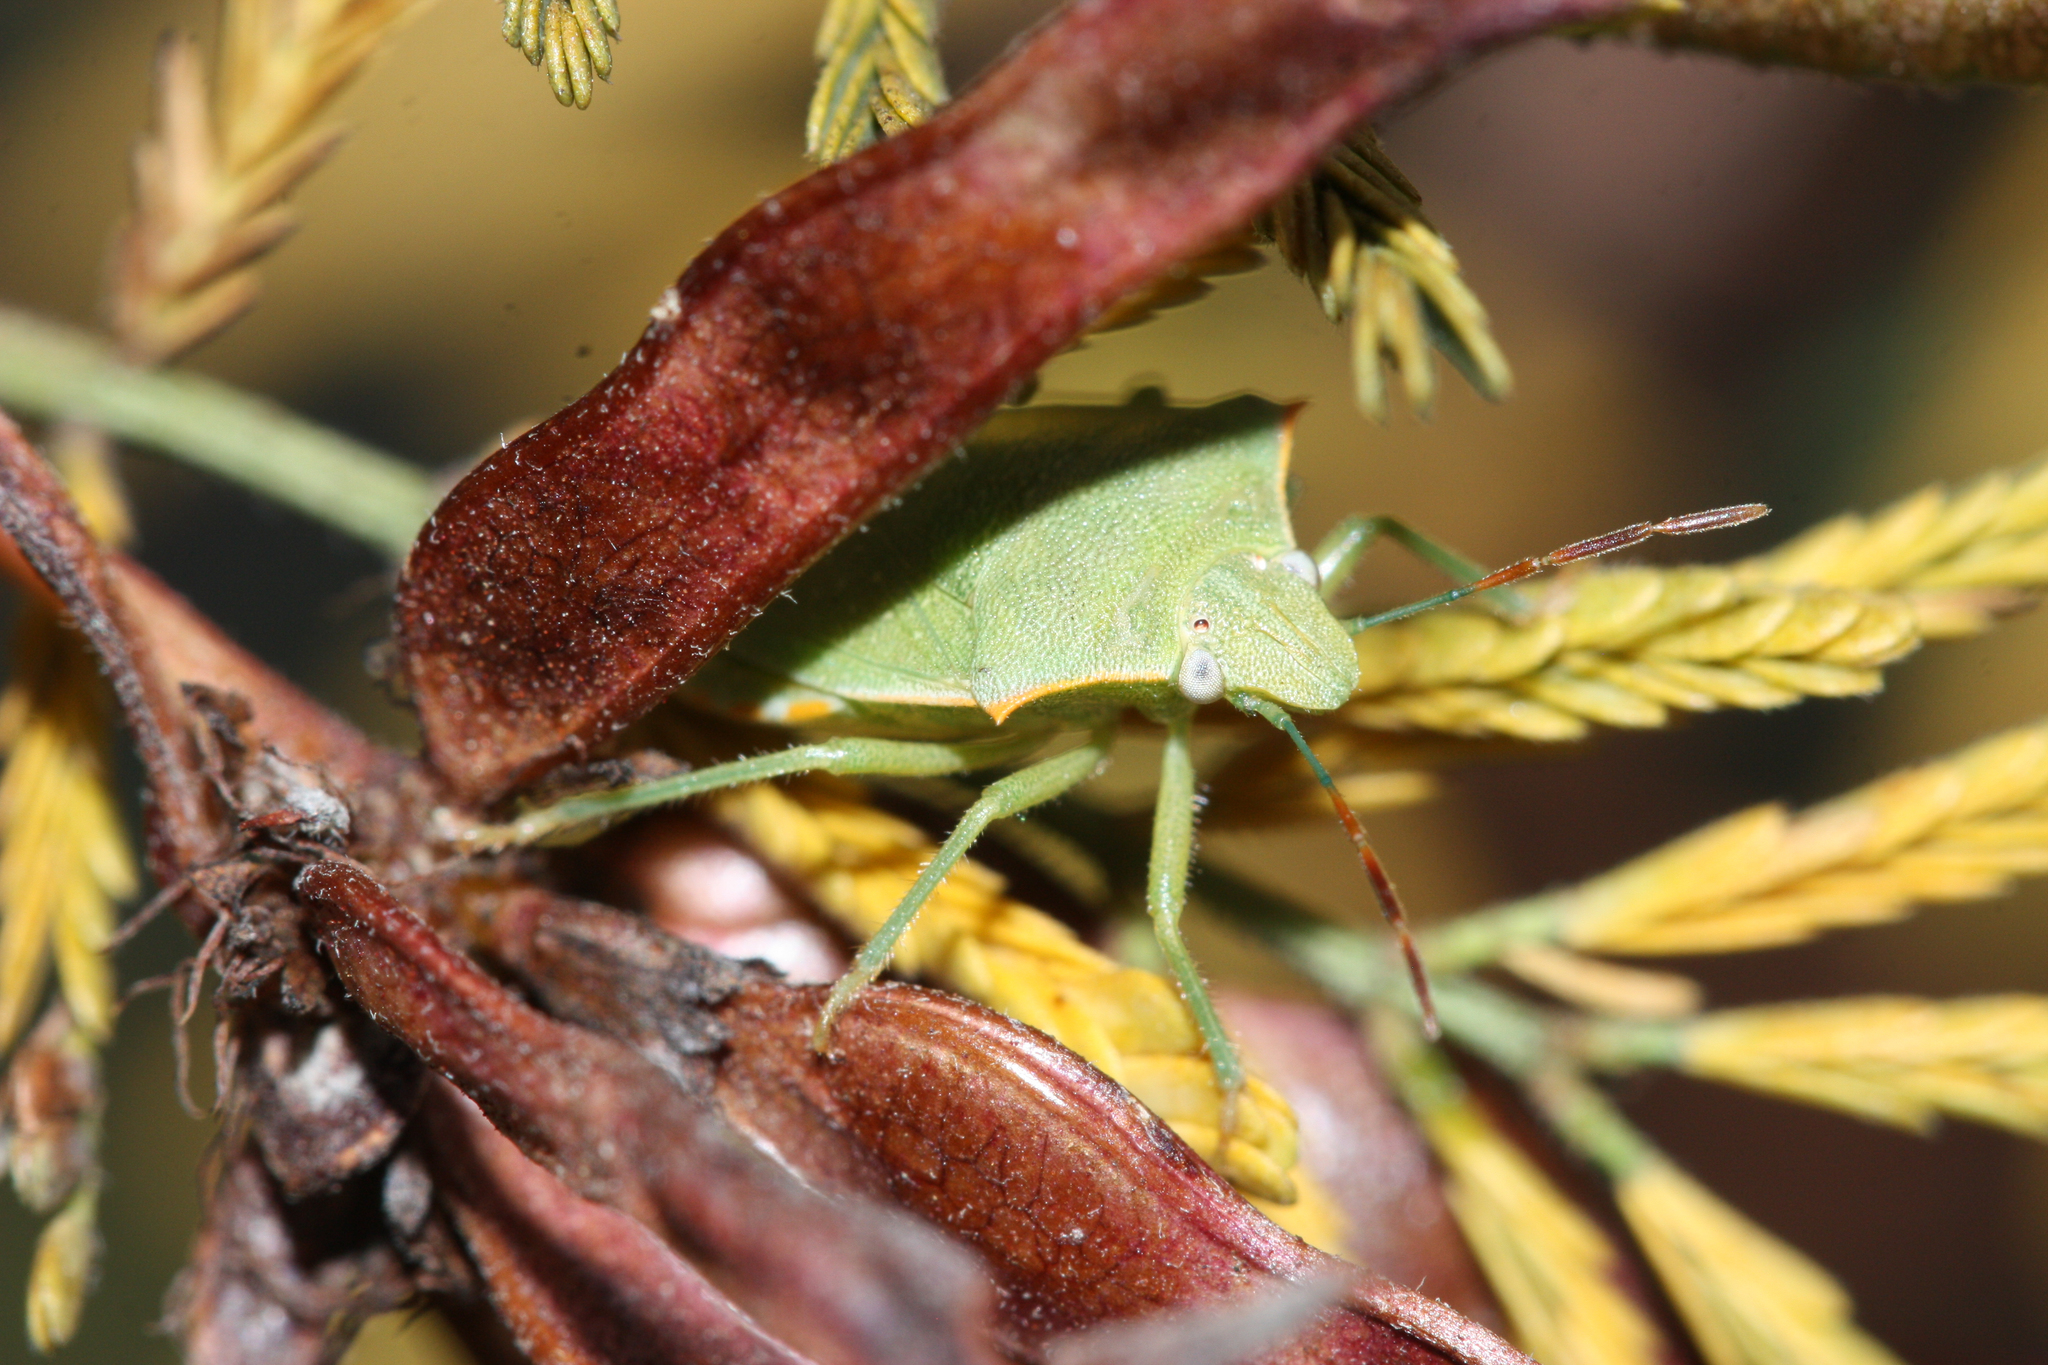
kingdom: Animalia
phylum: Arthropoda
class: Insecta
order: Hemiptera
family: Pentatomidae
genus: Thyanta
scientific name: Thyanta accerra
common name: Stink bug
